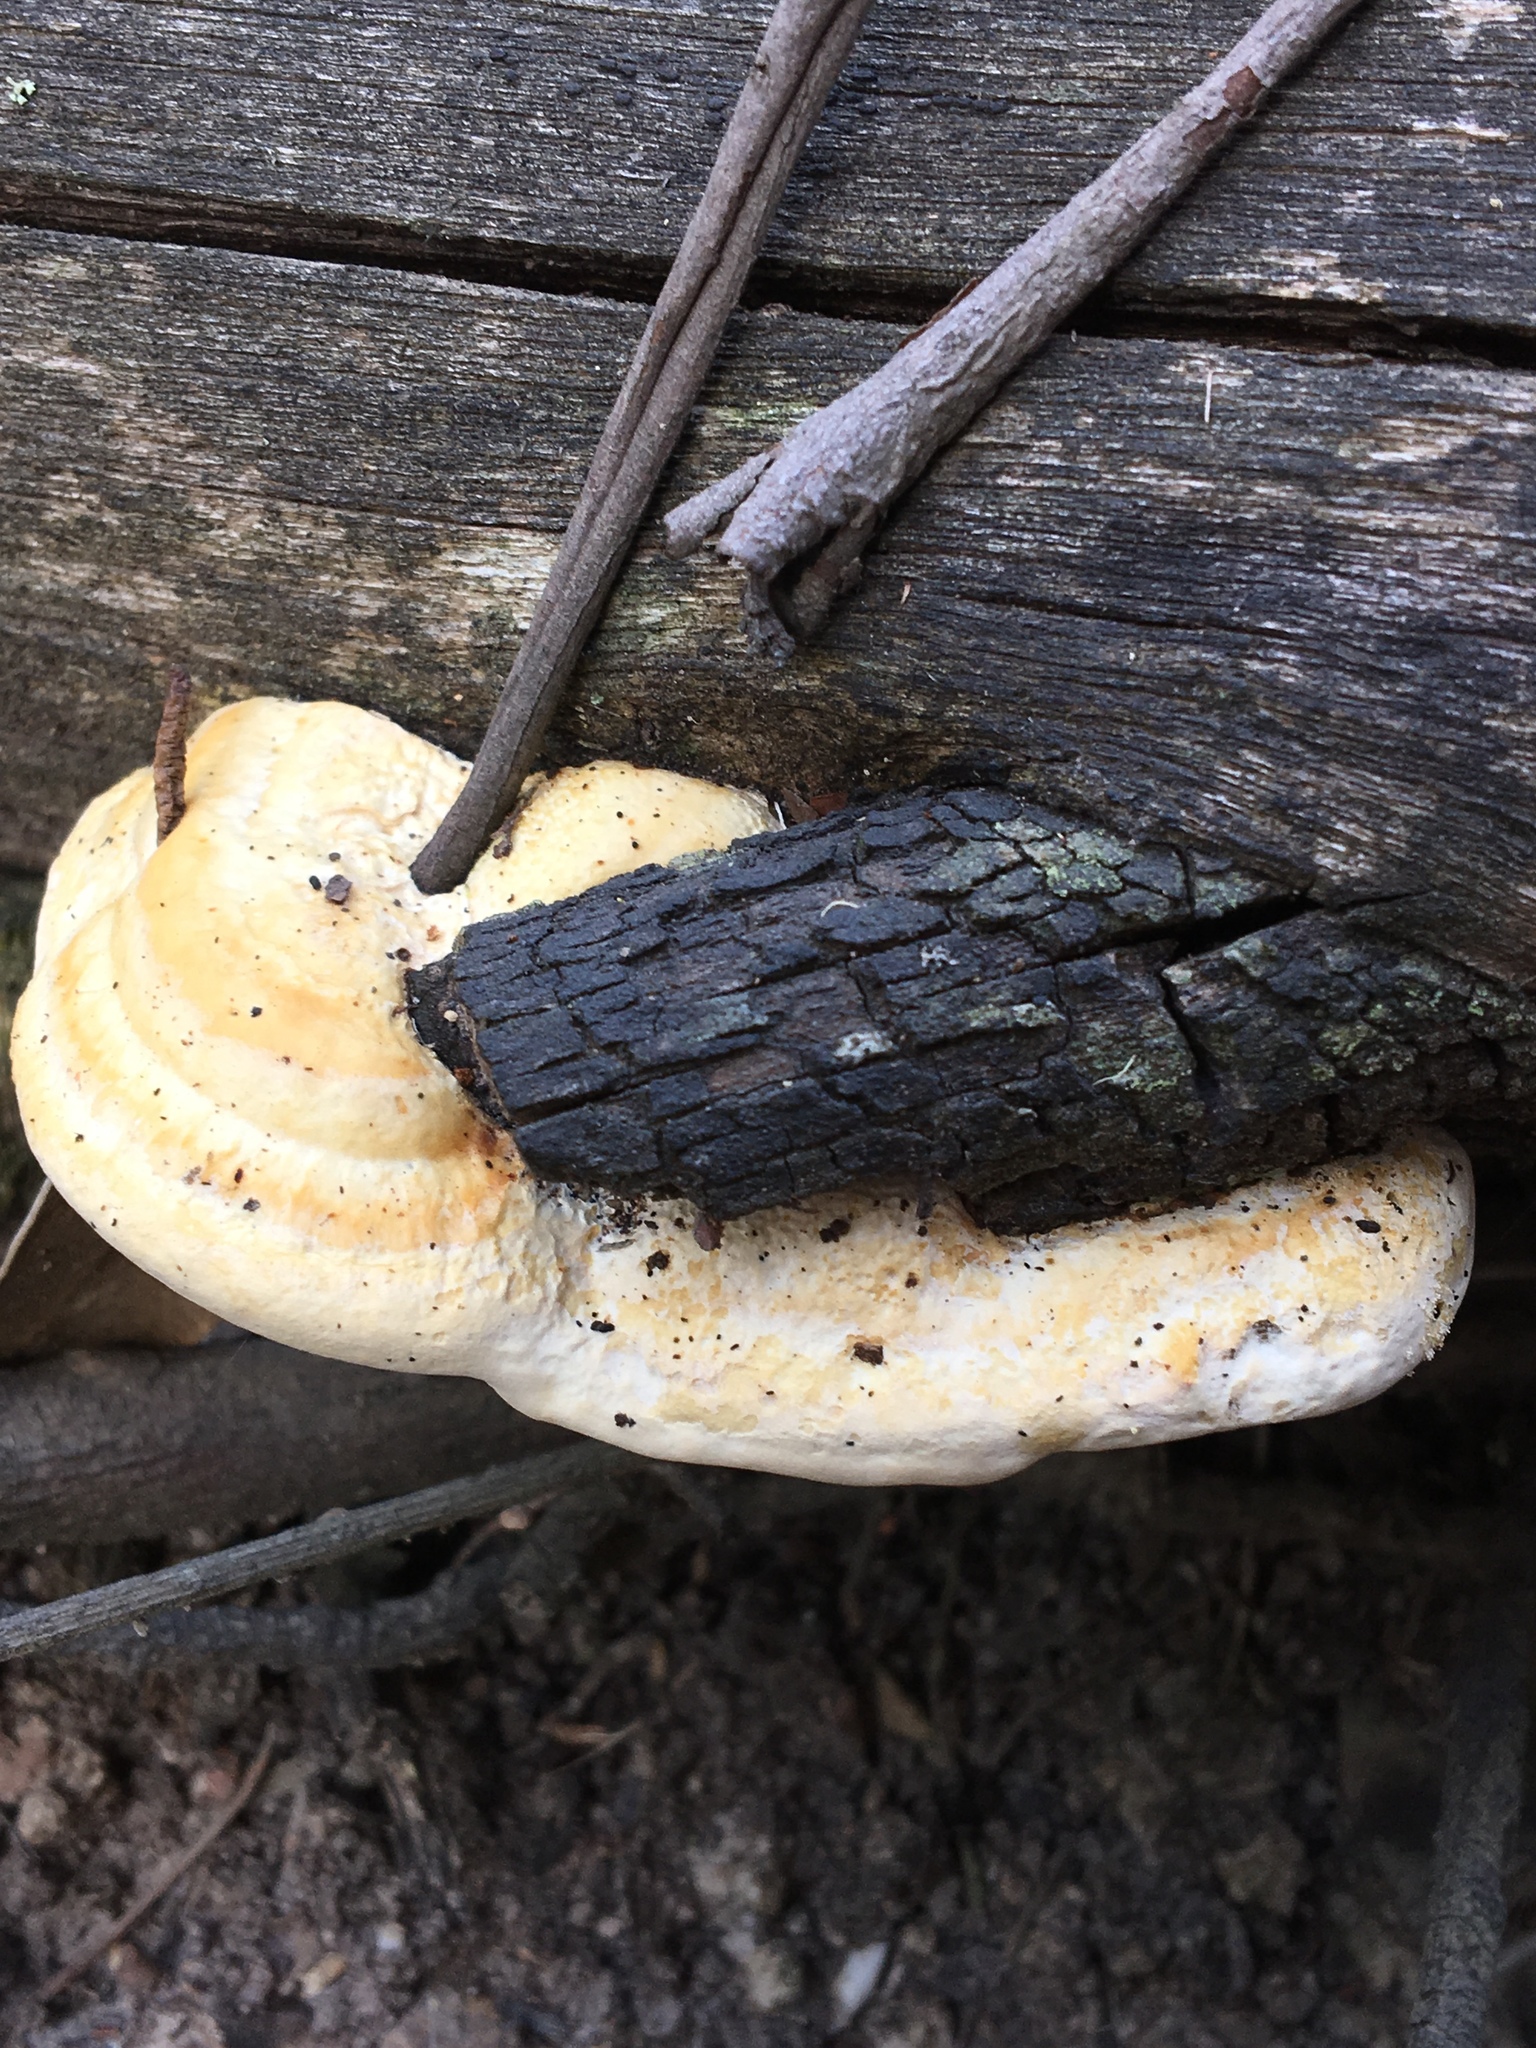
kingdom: Fungi
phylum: Basidiomycota
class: Agaricomycetes
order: Polyporales
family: Polyporaceae
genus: Truncospora
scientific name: Truncospora ochroleuca
